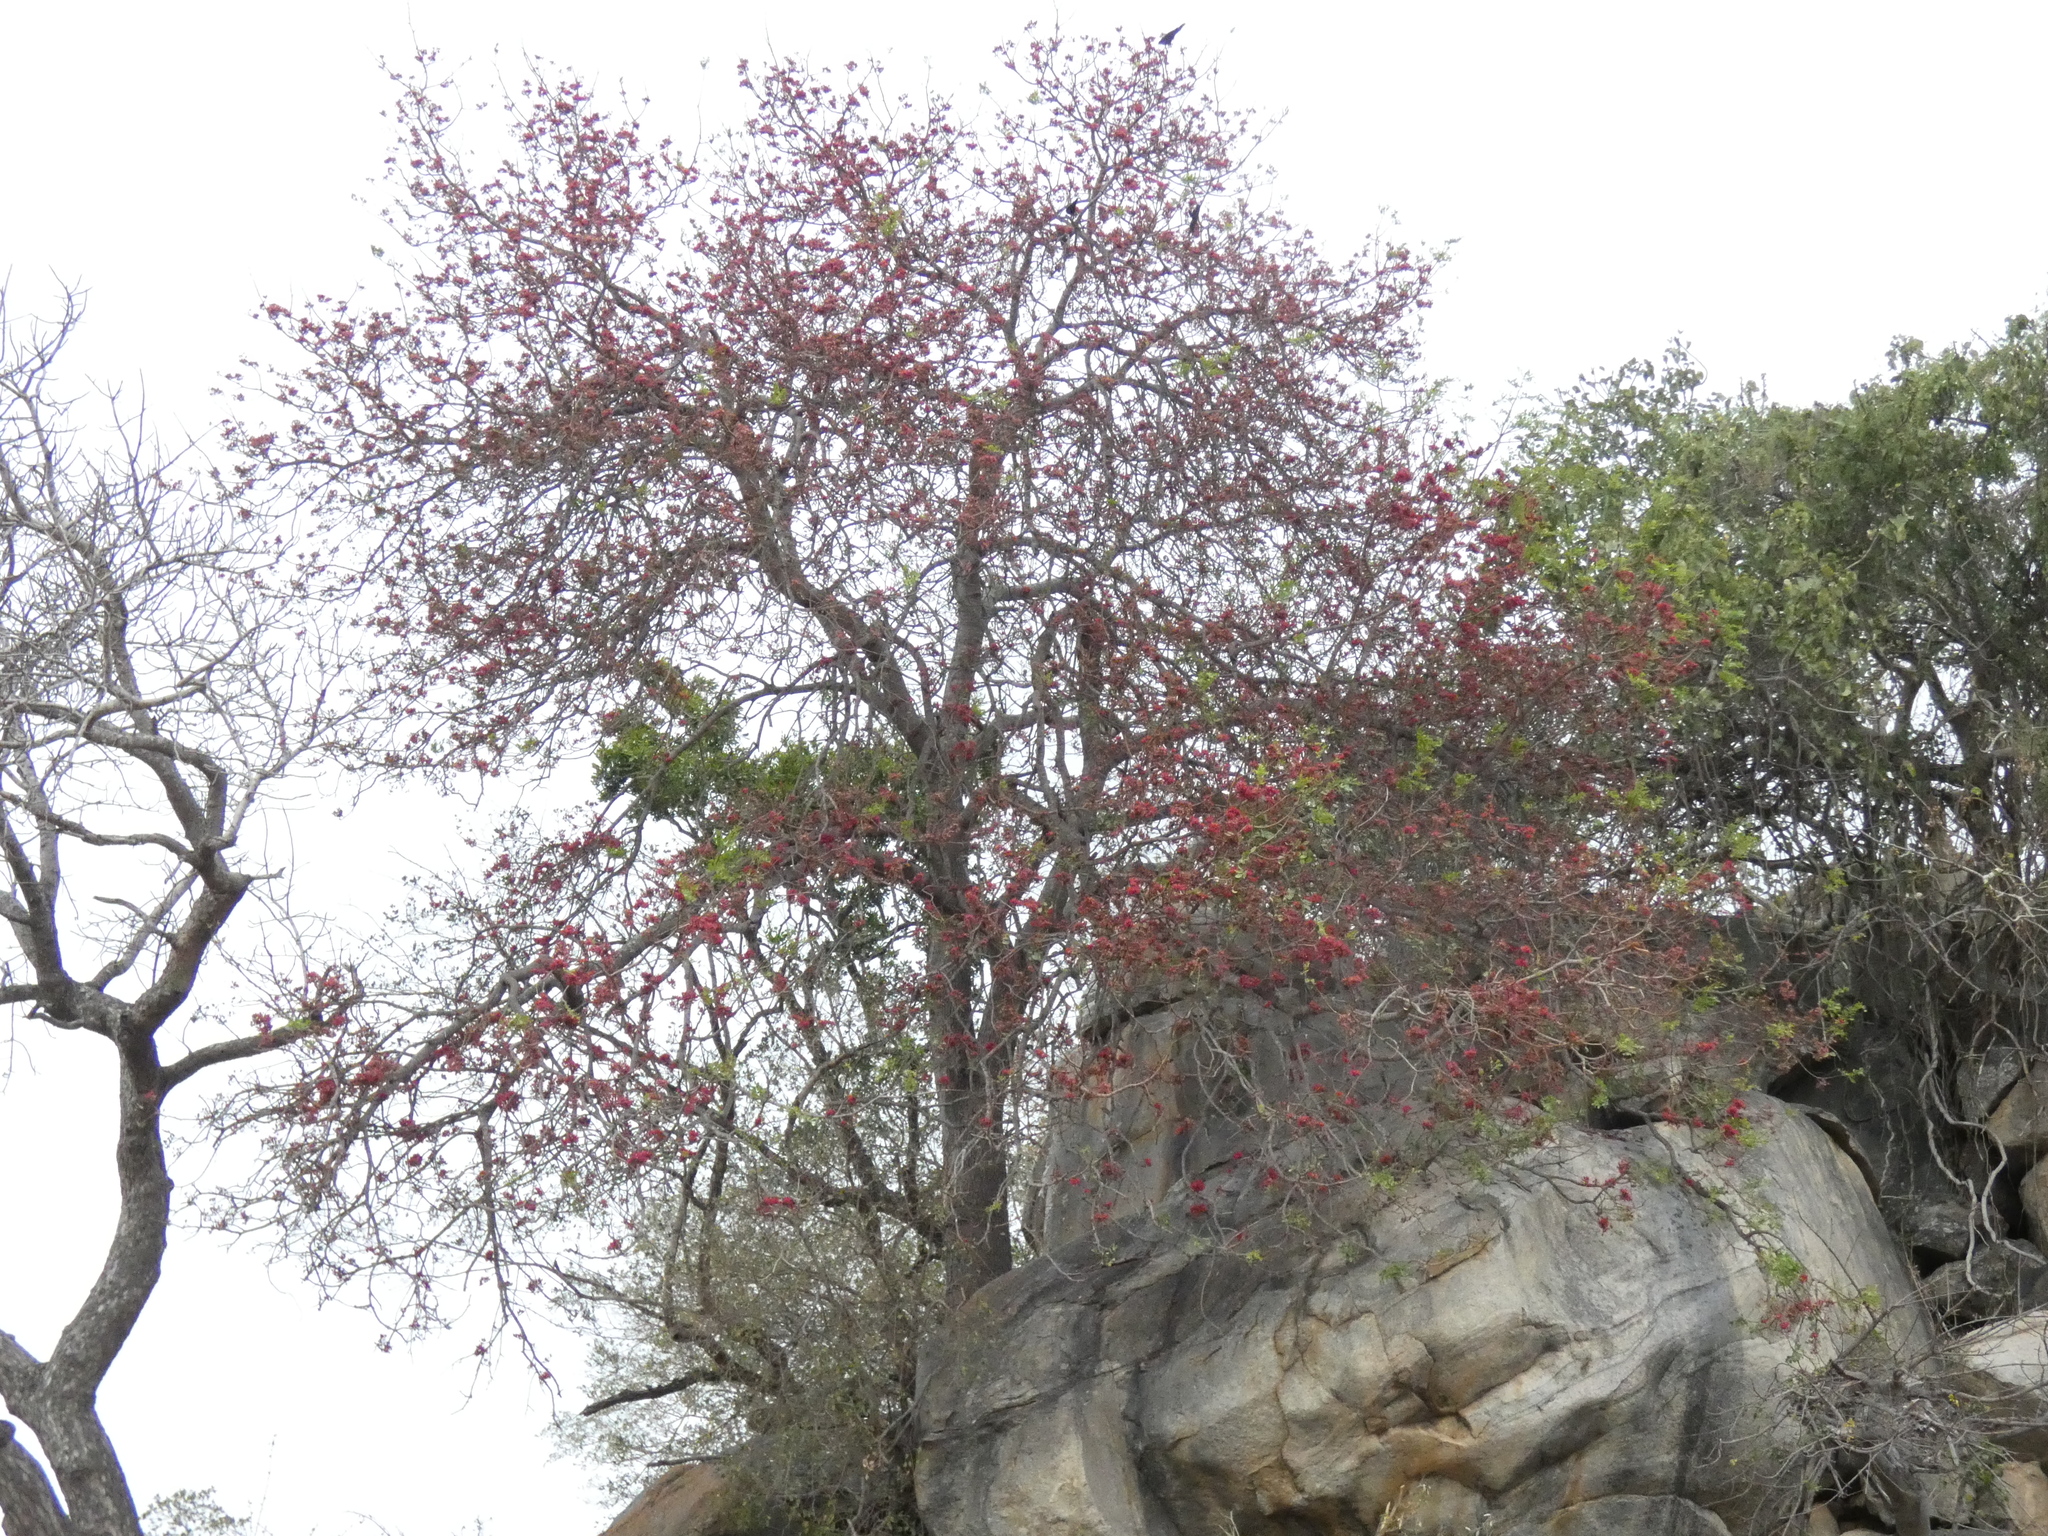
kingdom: Plantae
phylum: Tracheophyta
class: Magnoliopsida
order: Fabales
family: Fabaceae
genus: Schotia
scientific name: Schotia brachypetala
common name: Weeping boer-bean
